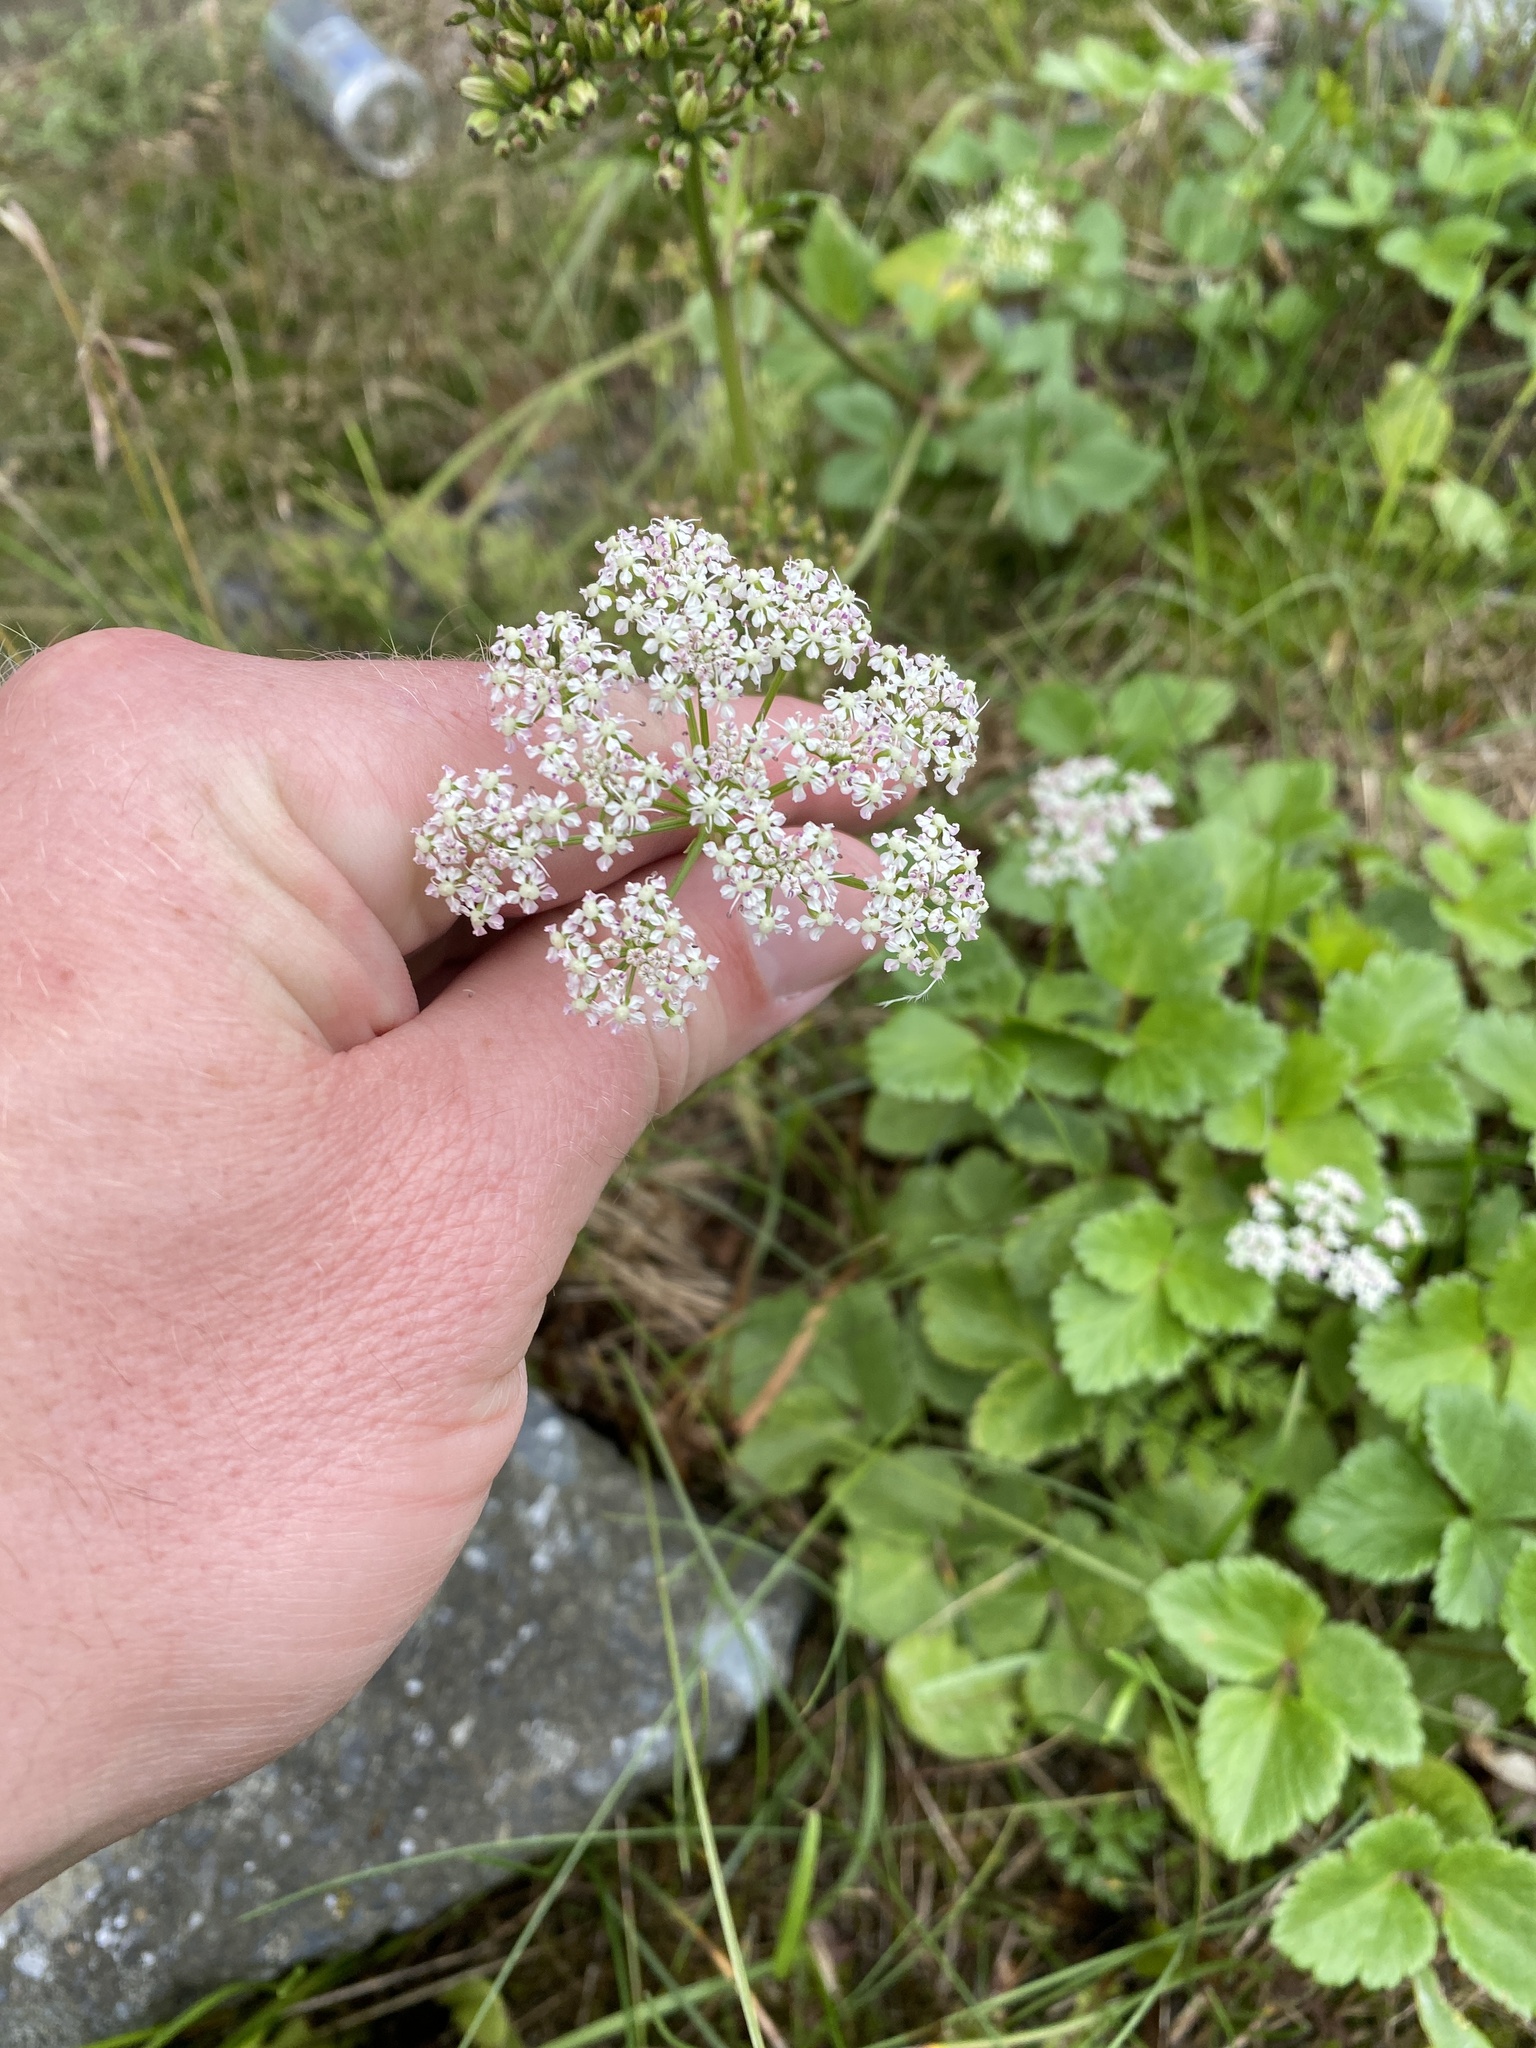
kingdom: Plantae
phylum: Tracheophyta
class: Magnoliopsida
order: Apiales
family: Apiaceae
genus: Ligusticum
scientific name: Ligusticum scothicum
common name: Beach lovage
